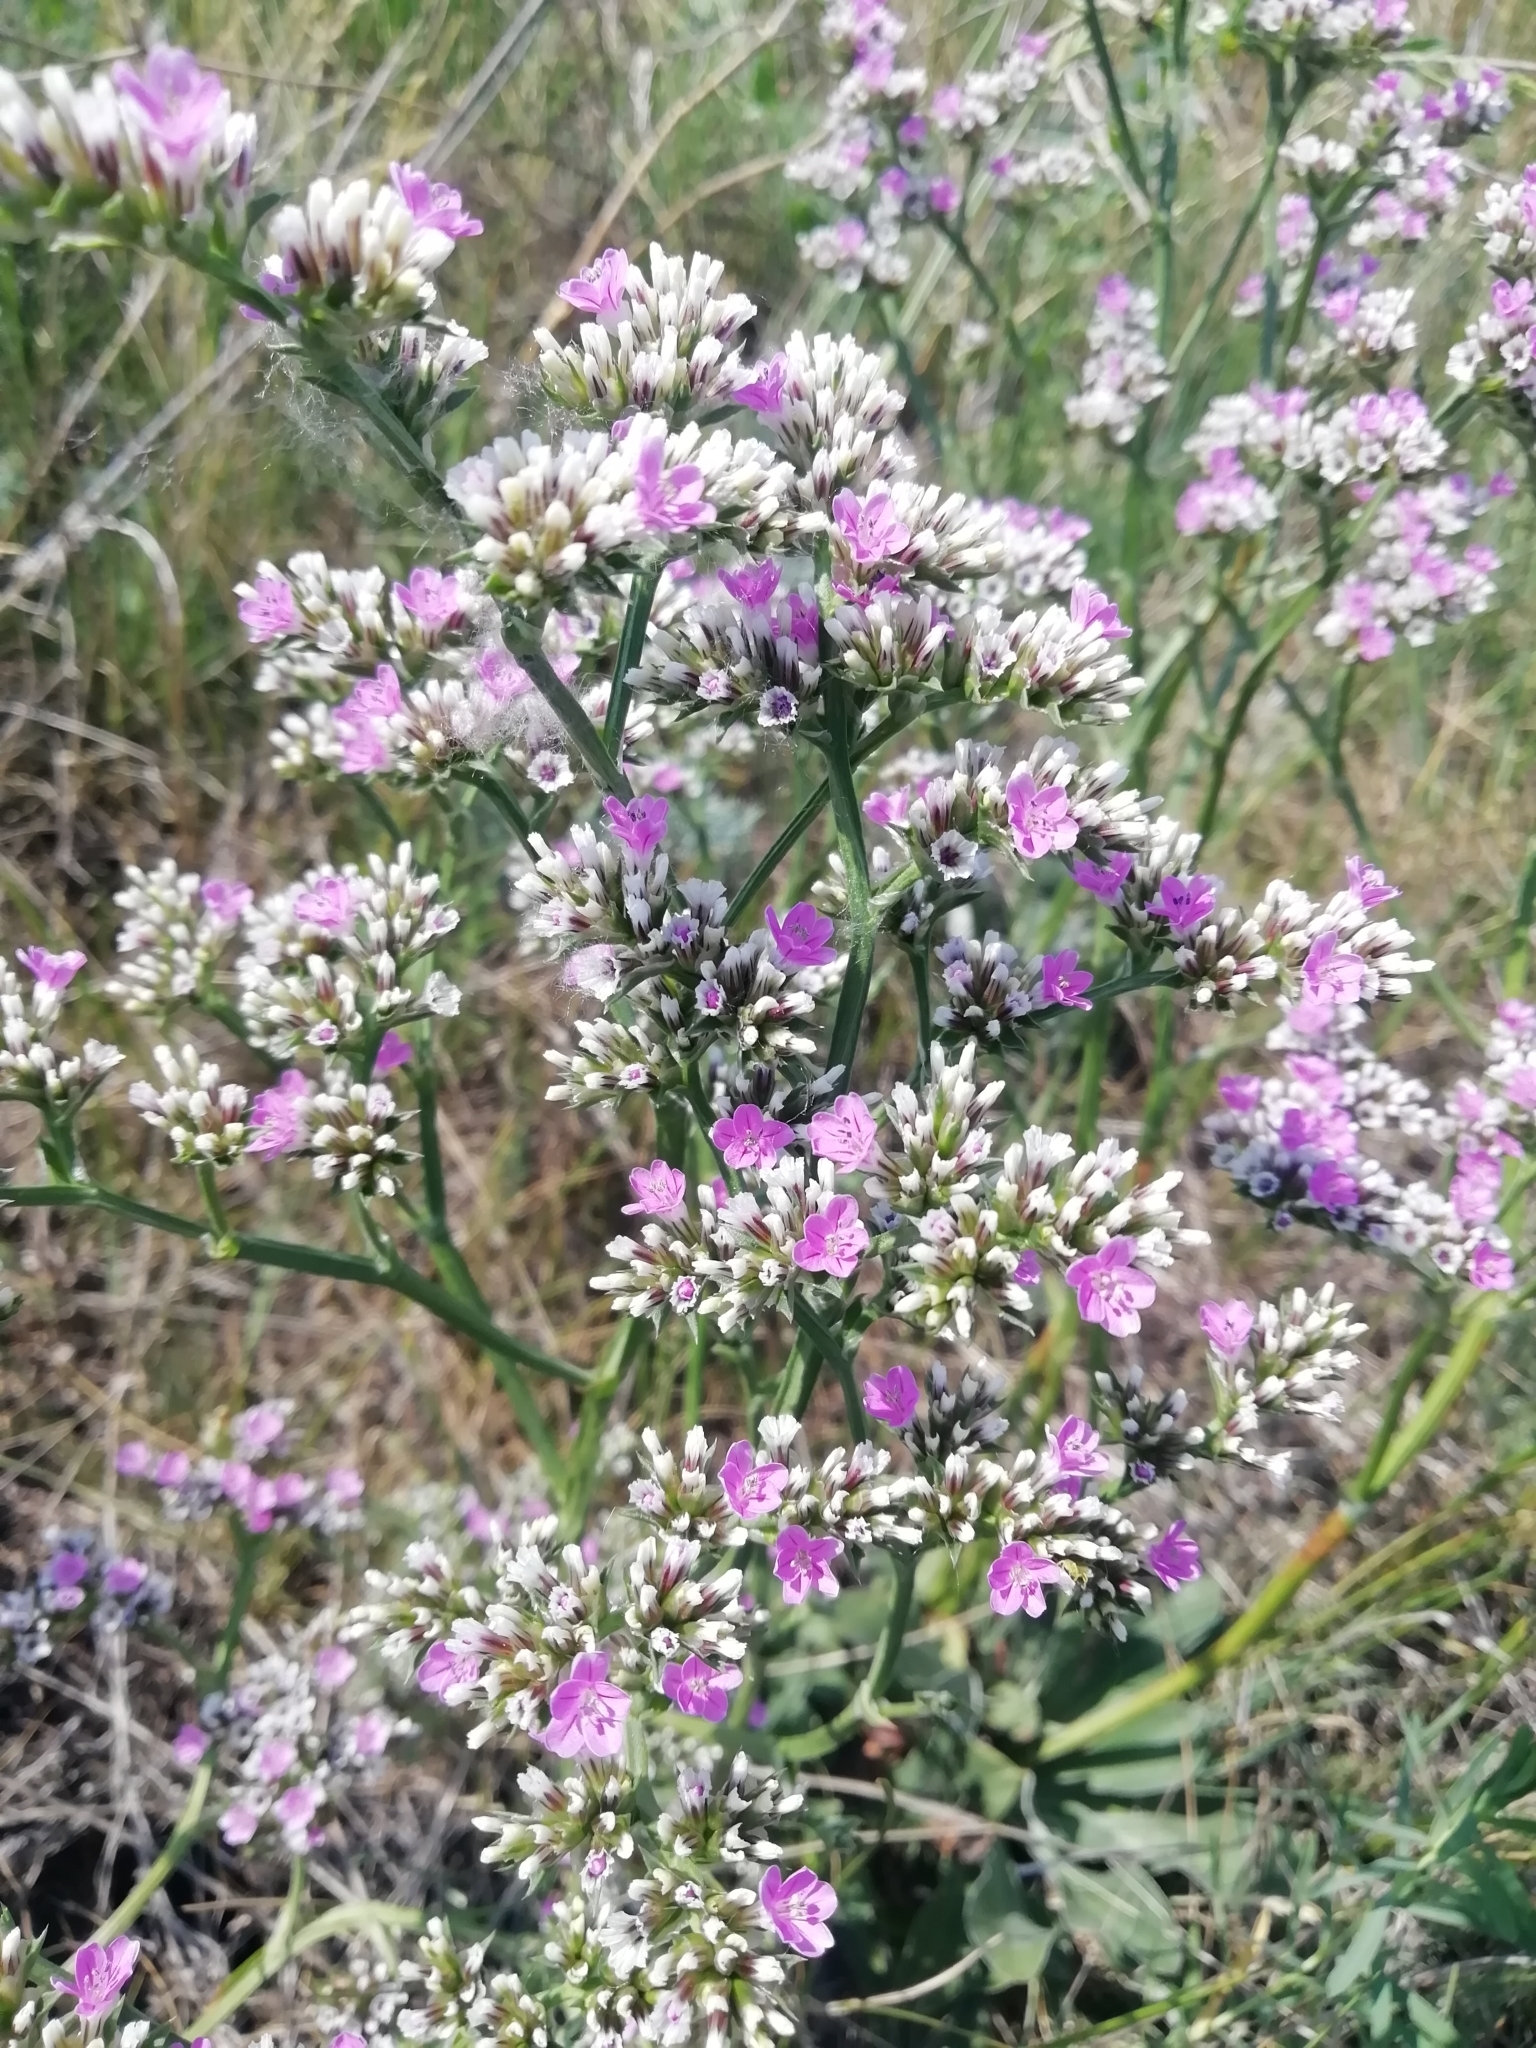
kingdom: Plantae
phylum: Tracheophyta
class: Magnoliopsida
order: Caryophyllales
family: Plumbaginaceae
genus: Goniolimon
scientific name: Goniolimon speciosum
